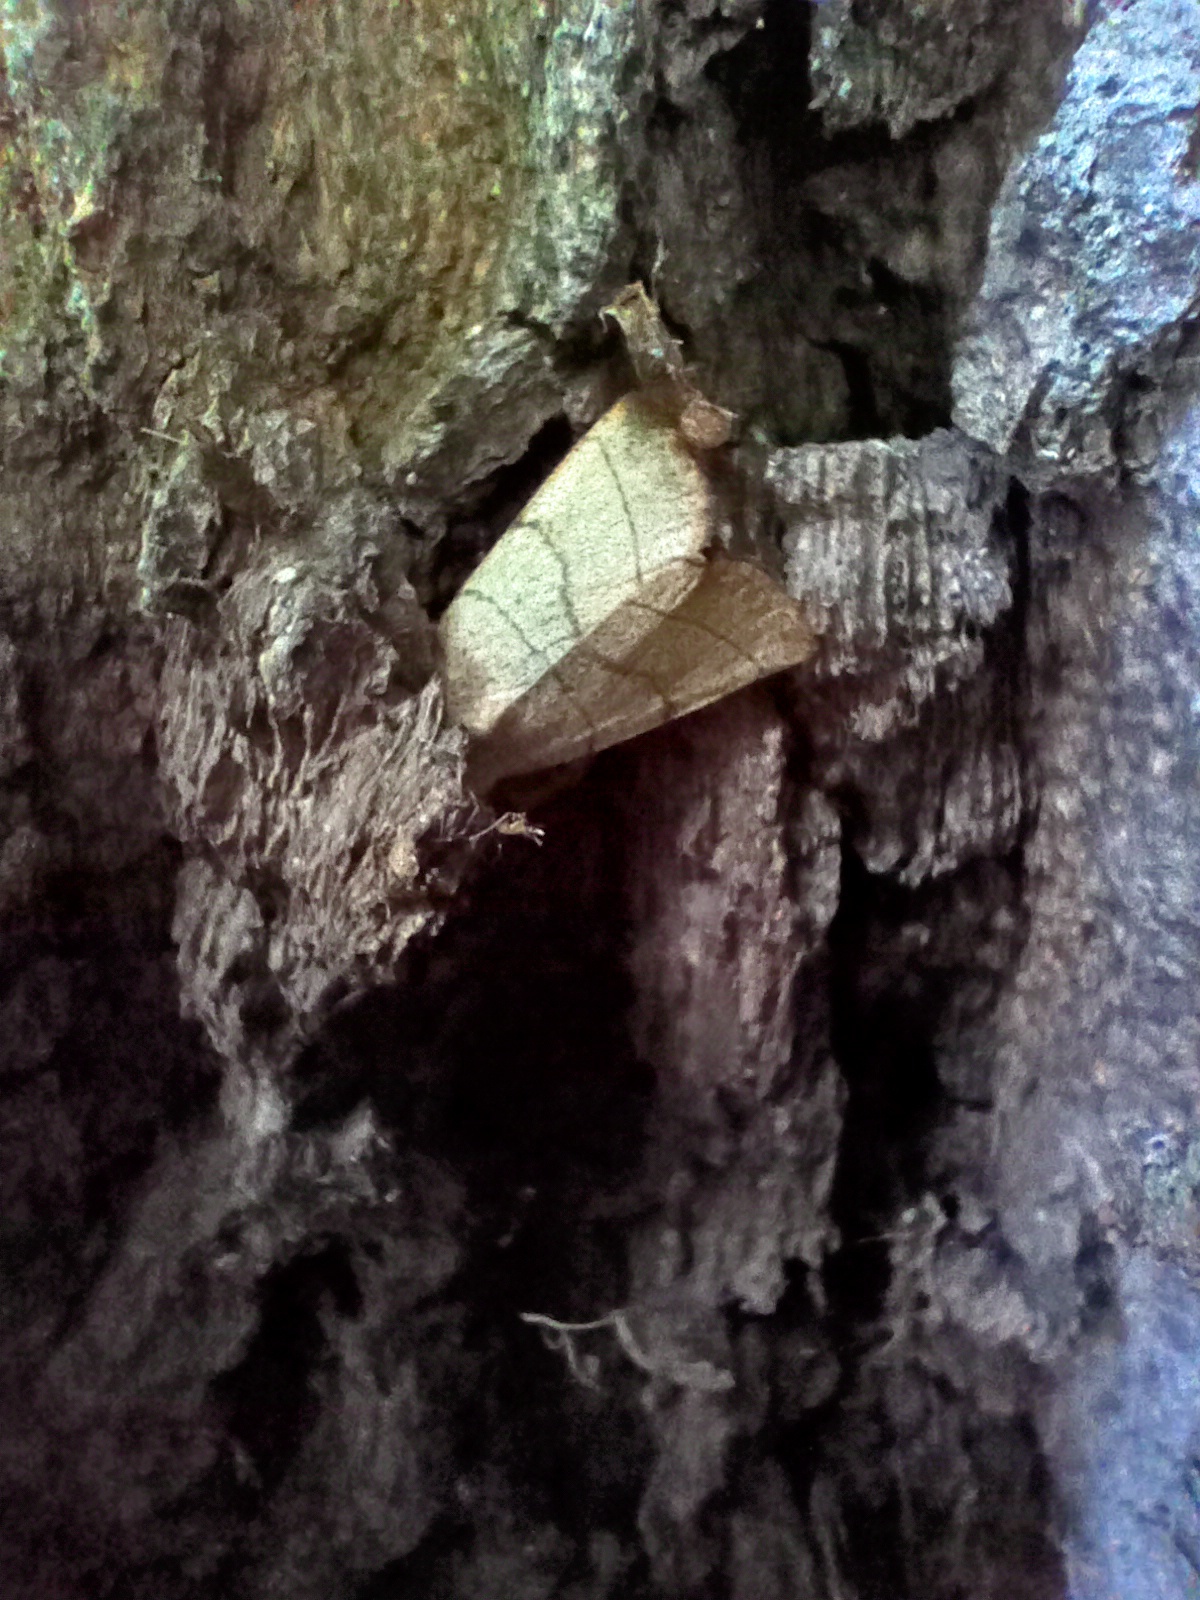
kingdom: Animalia
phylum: Arthropoda
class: Insecta
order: Lepidoptera
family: Noctuidae
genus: Charanyca
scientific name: Charanyca trigrammica
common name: Treble lines
